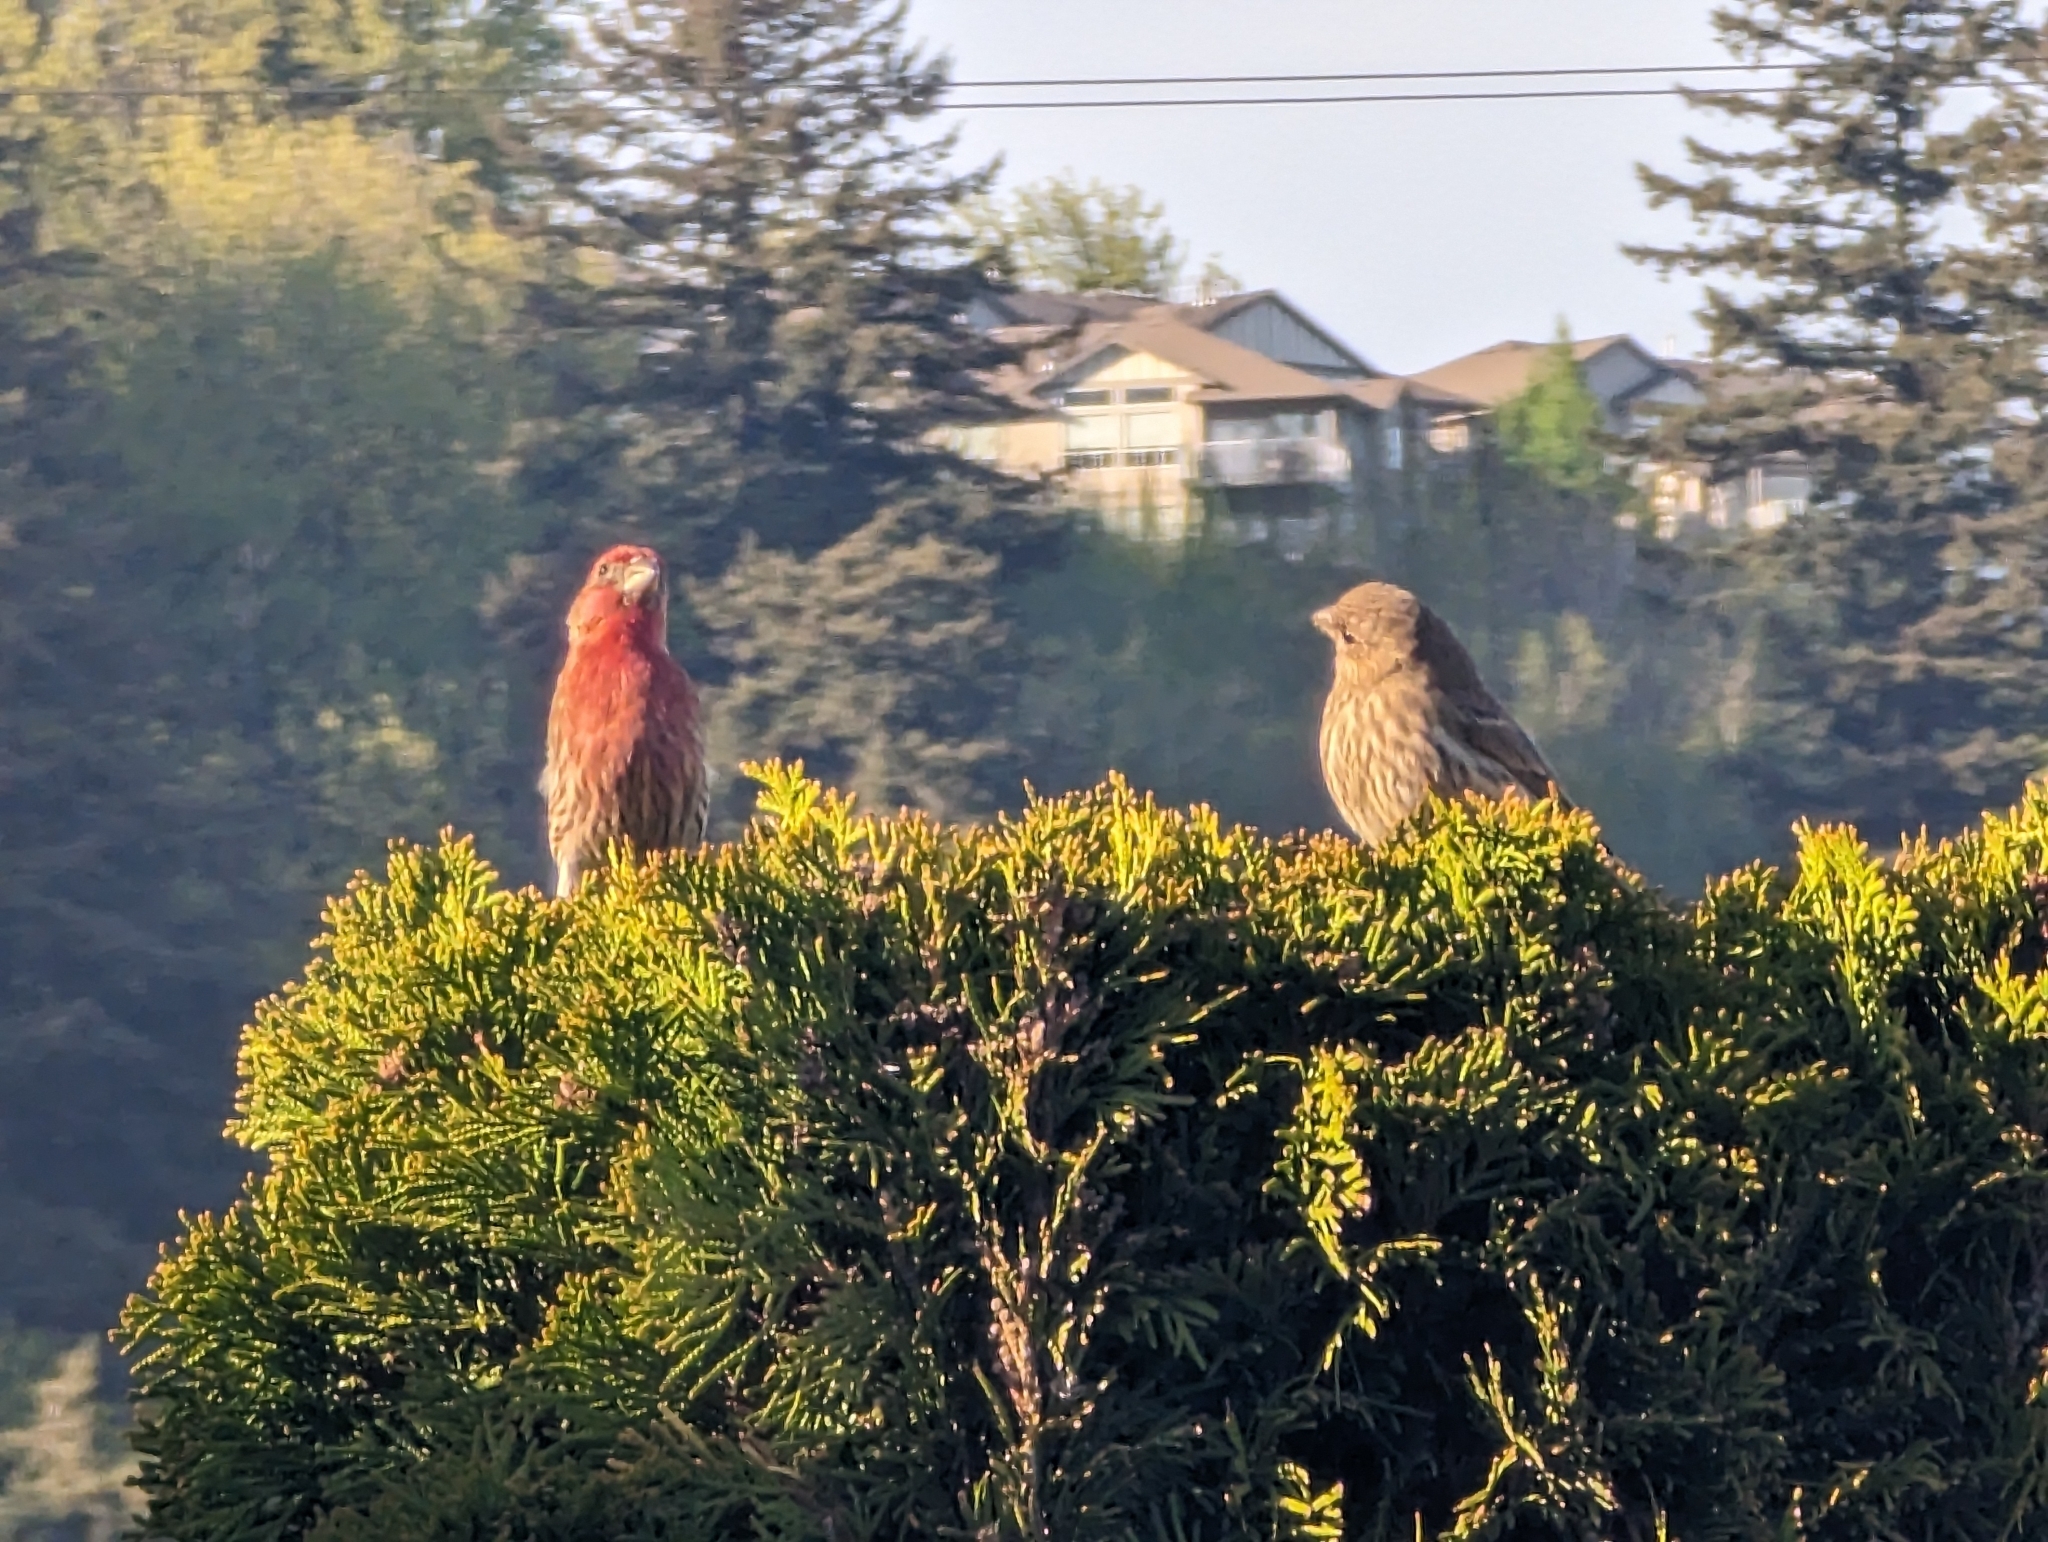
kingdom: Animalia
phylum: Chordata
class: Aves
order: Passeriformes
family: Fringillidae
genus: Haemorhous
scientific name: Haemorhous mexicanus
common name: House finch
